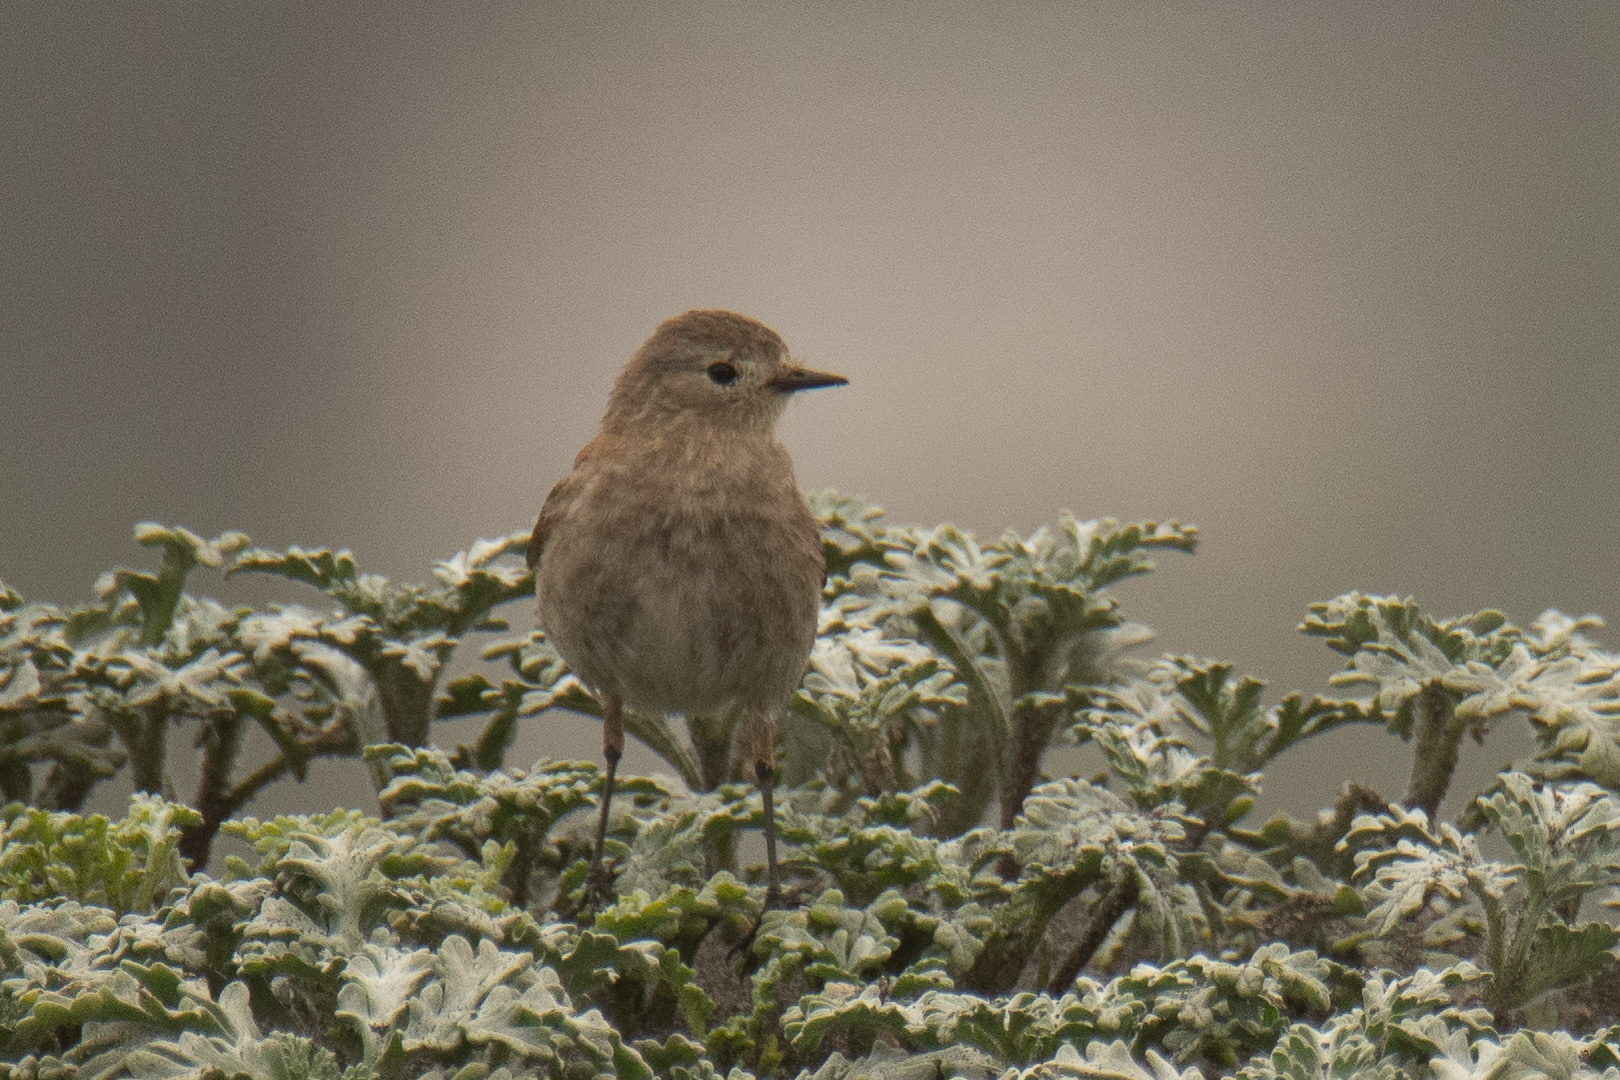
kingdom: Animalia
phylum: Chordata
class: Aves
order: Passeriformes
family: Tyrannidae
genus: Lessonia
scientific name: Lessonia rufa
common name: Austral negrito
